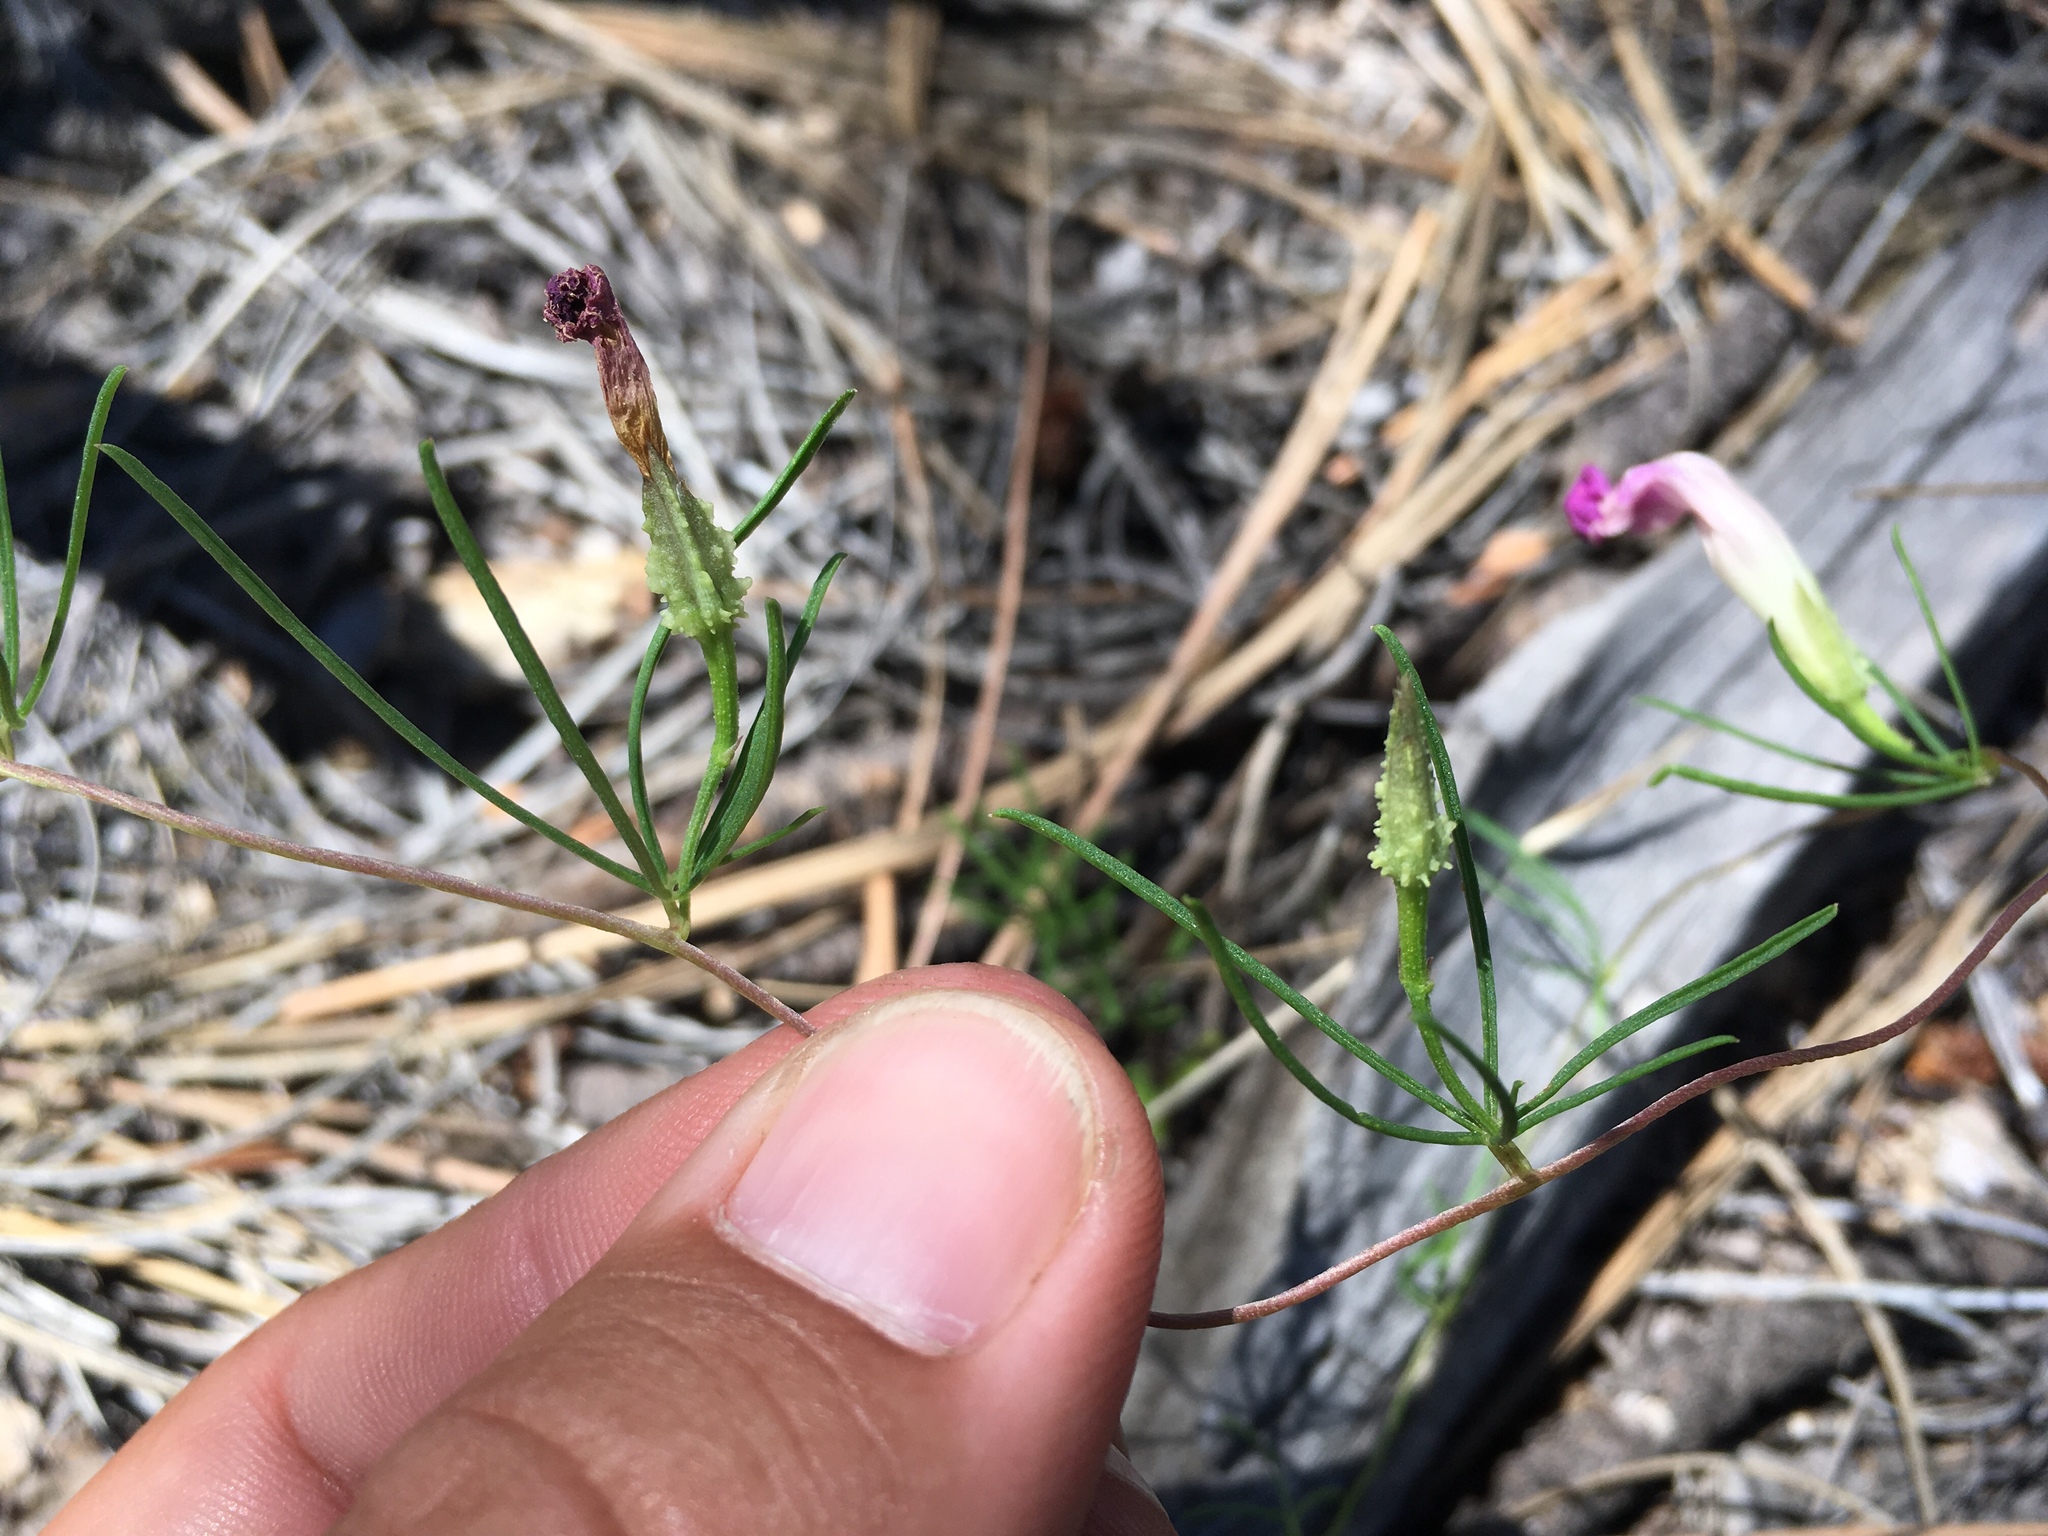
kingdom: Plantae
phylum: Tracheophyta
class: Magnoliopsida
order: Solanales
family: Convolvulaceae
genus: Ipomoea
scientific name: Ipomoea plummerae
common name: Plummer's morning-glory
